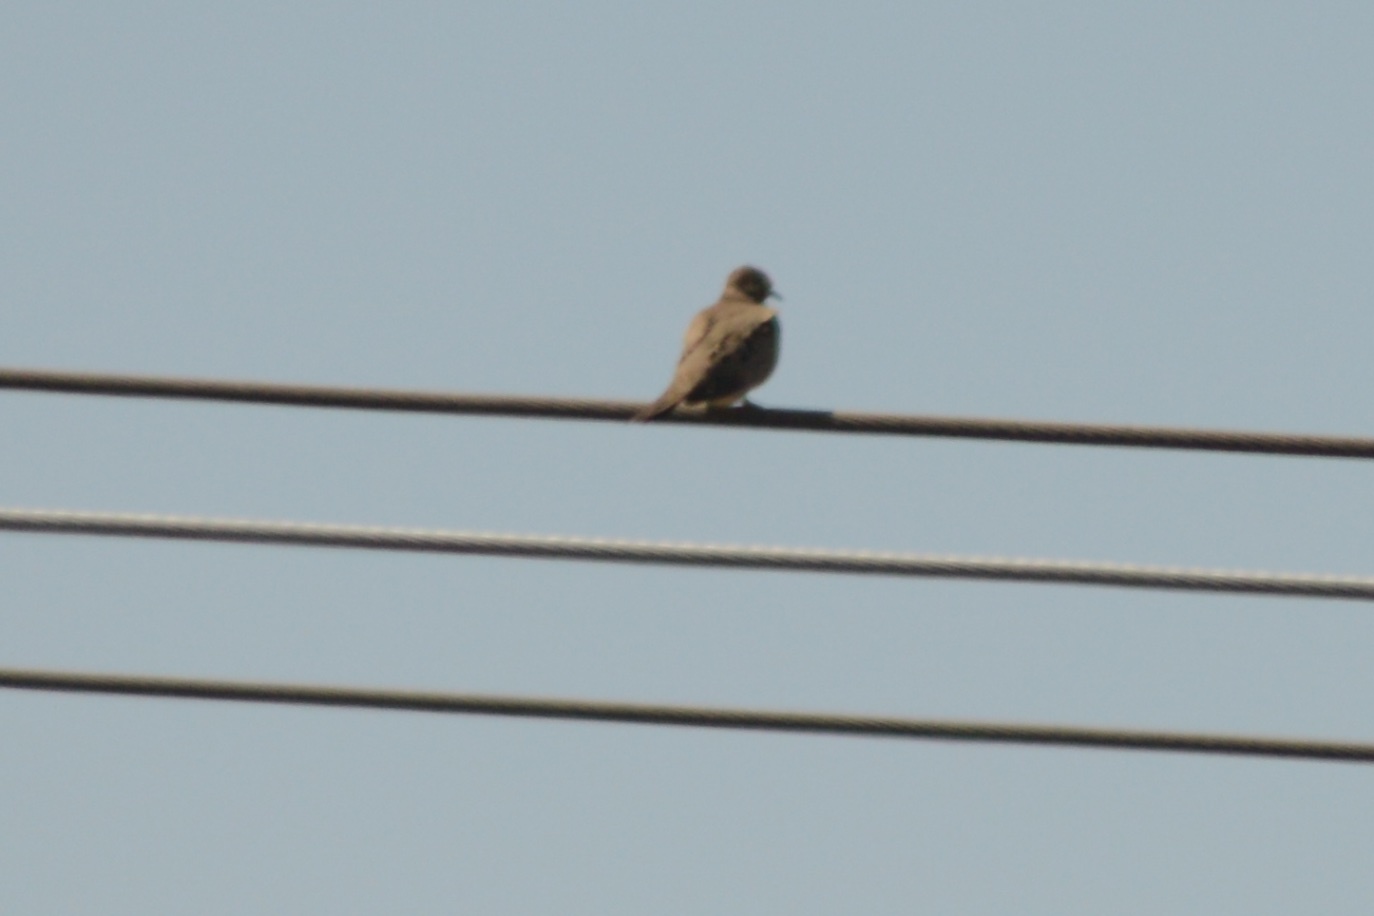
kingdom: Animalia
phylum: Chordata
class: Aves
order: Columbiformes
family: Columbidae
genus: Zenaida
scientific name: Zenaida macroura
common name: Mourning dove
